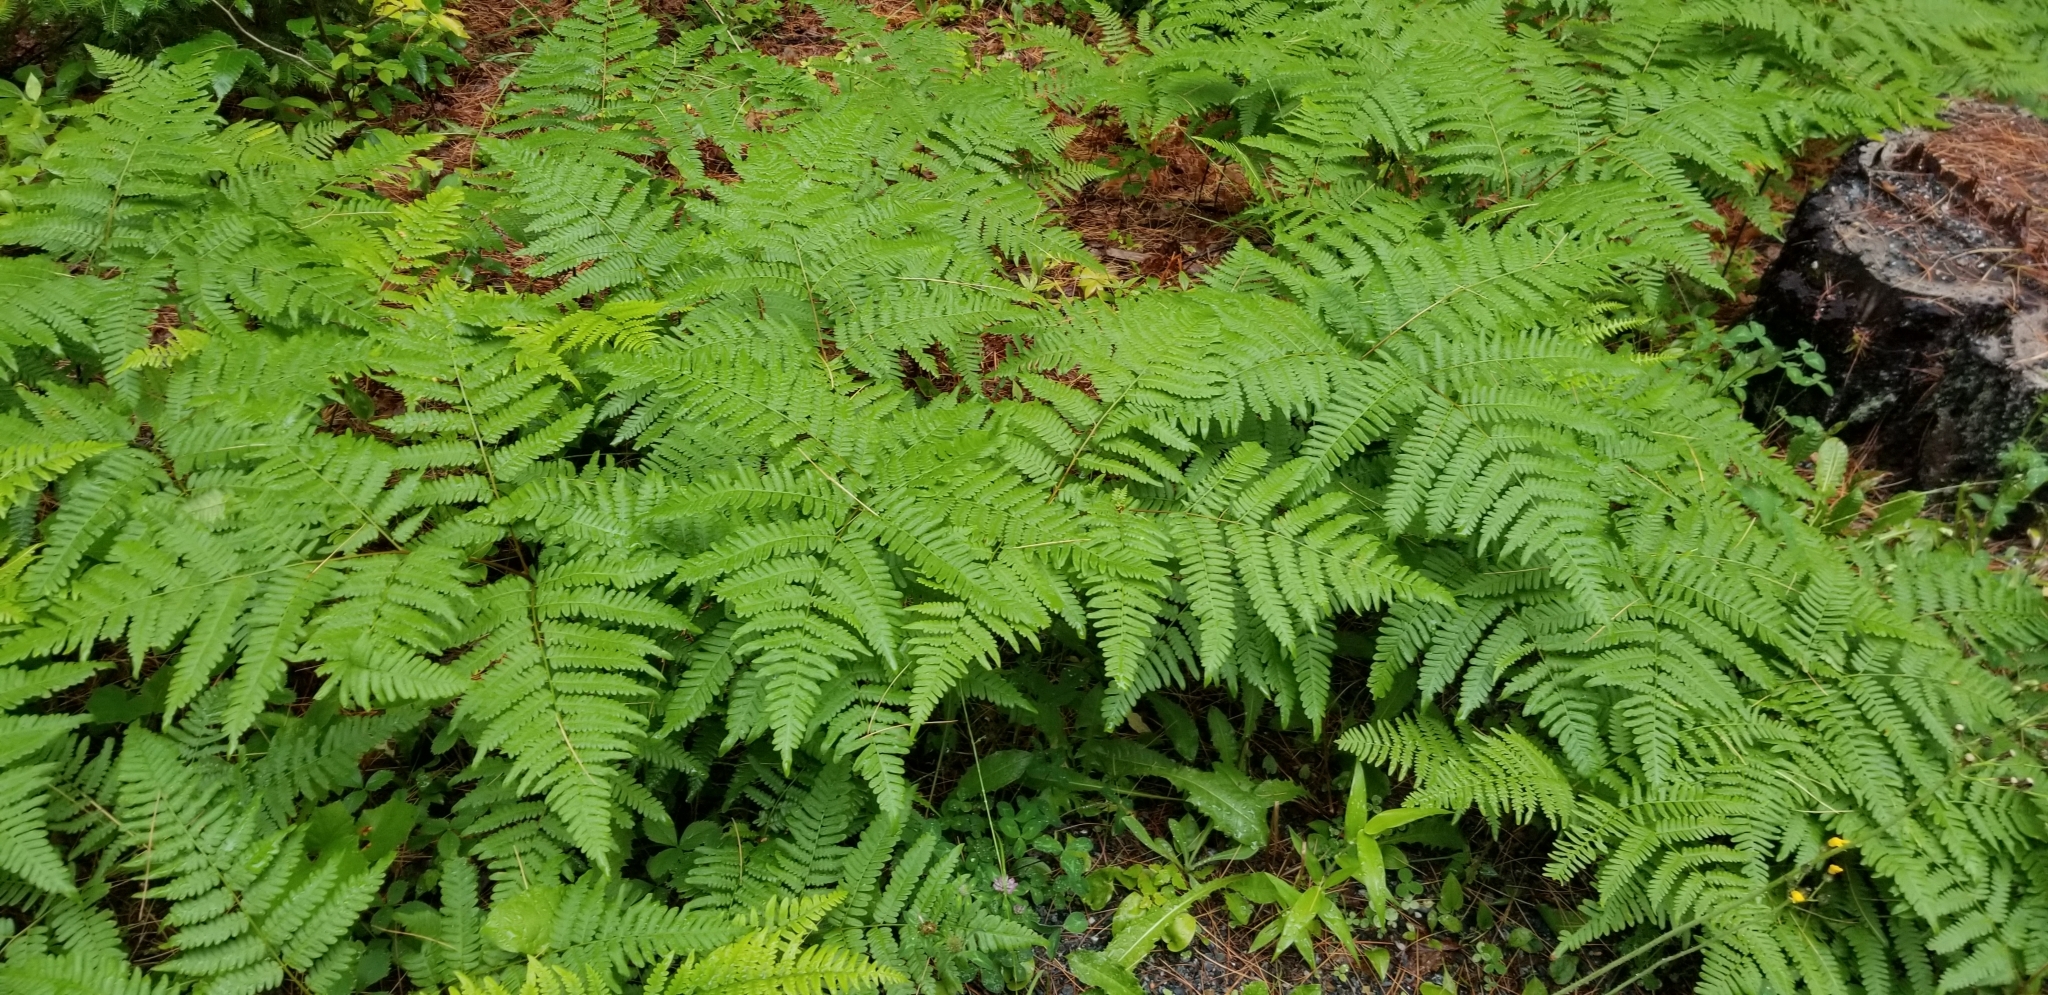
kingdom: Plantae
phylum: Tracheophyta
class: Polypodiopsida
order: Polypodiales
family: Dennstaedtiaceae
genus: Pteridium
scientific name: Pteridium aquilinum
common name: Bracken
